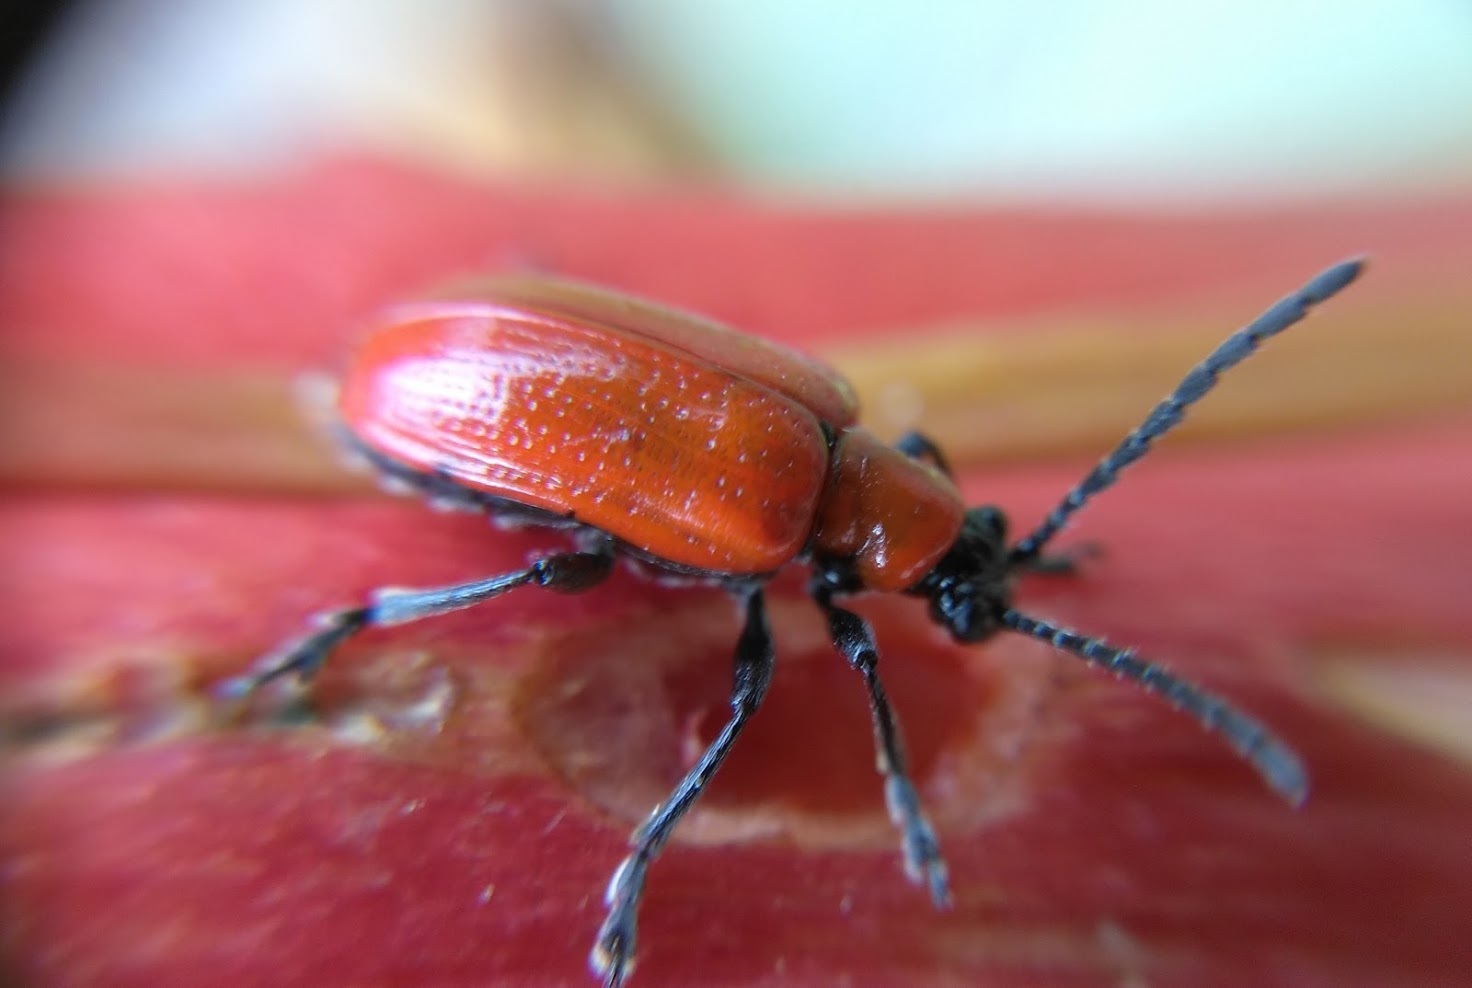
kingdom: Animalia
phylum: Arthropoda
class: Insecta
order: Coleoptera
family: Chrysomelidae
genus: Lilioceris
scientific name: Lilioceris lilii
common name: Lily beetle
